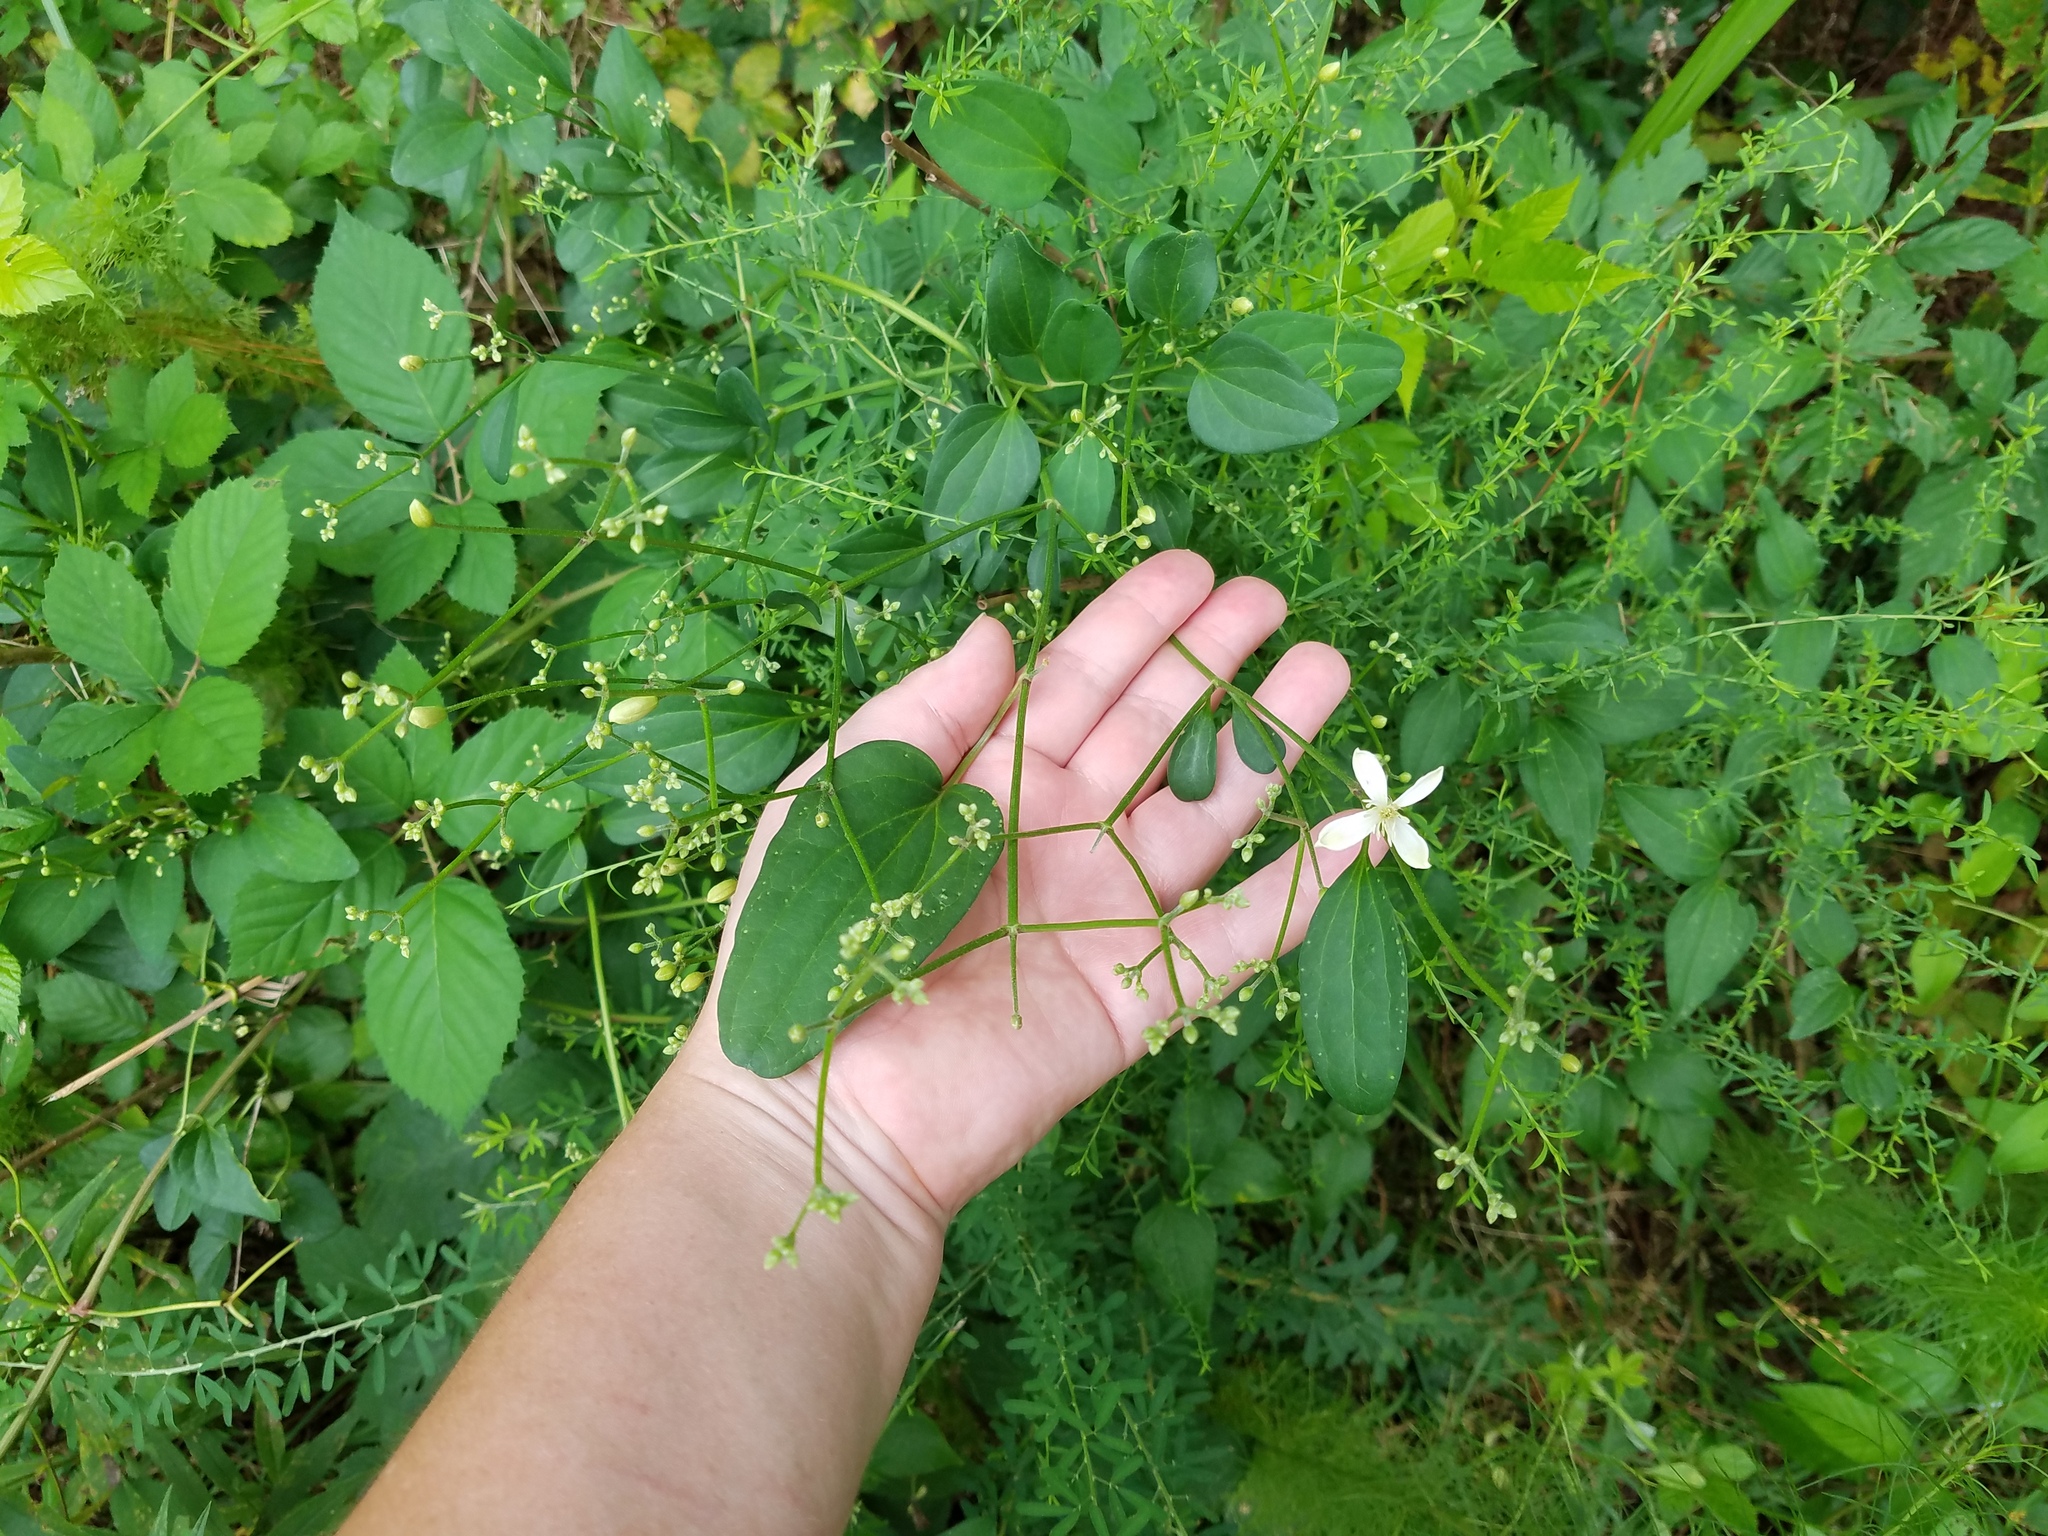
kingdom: Plantae
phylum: Tracheophyta
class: Magnoliopsida
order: Ranunculales
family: Ranunculaceae
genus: Clematis
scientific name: Clematis terniflora
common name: Sweet autumn clematis
